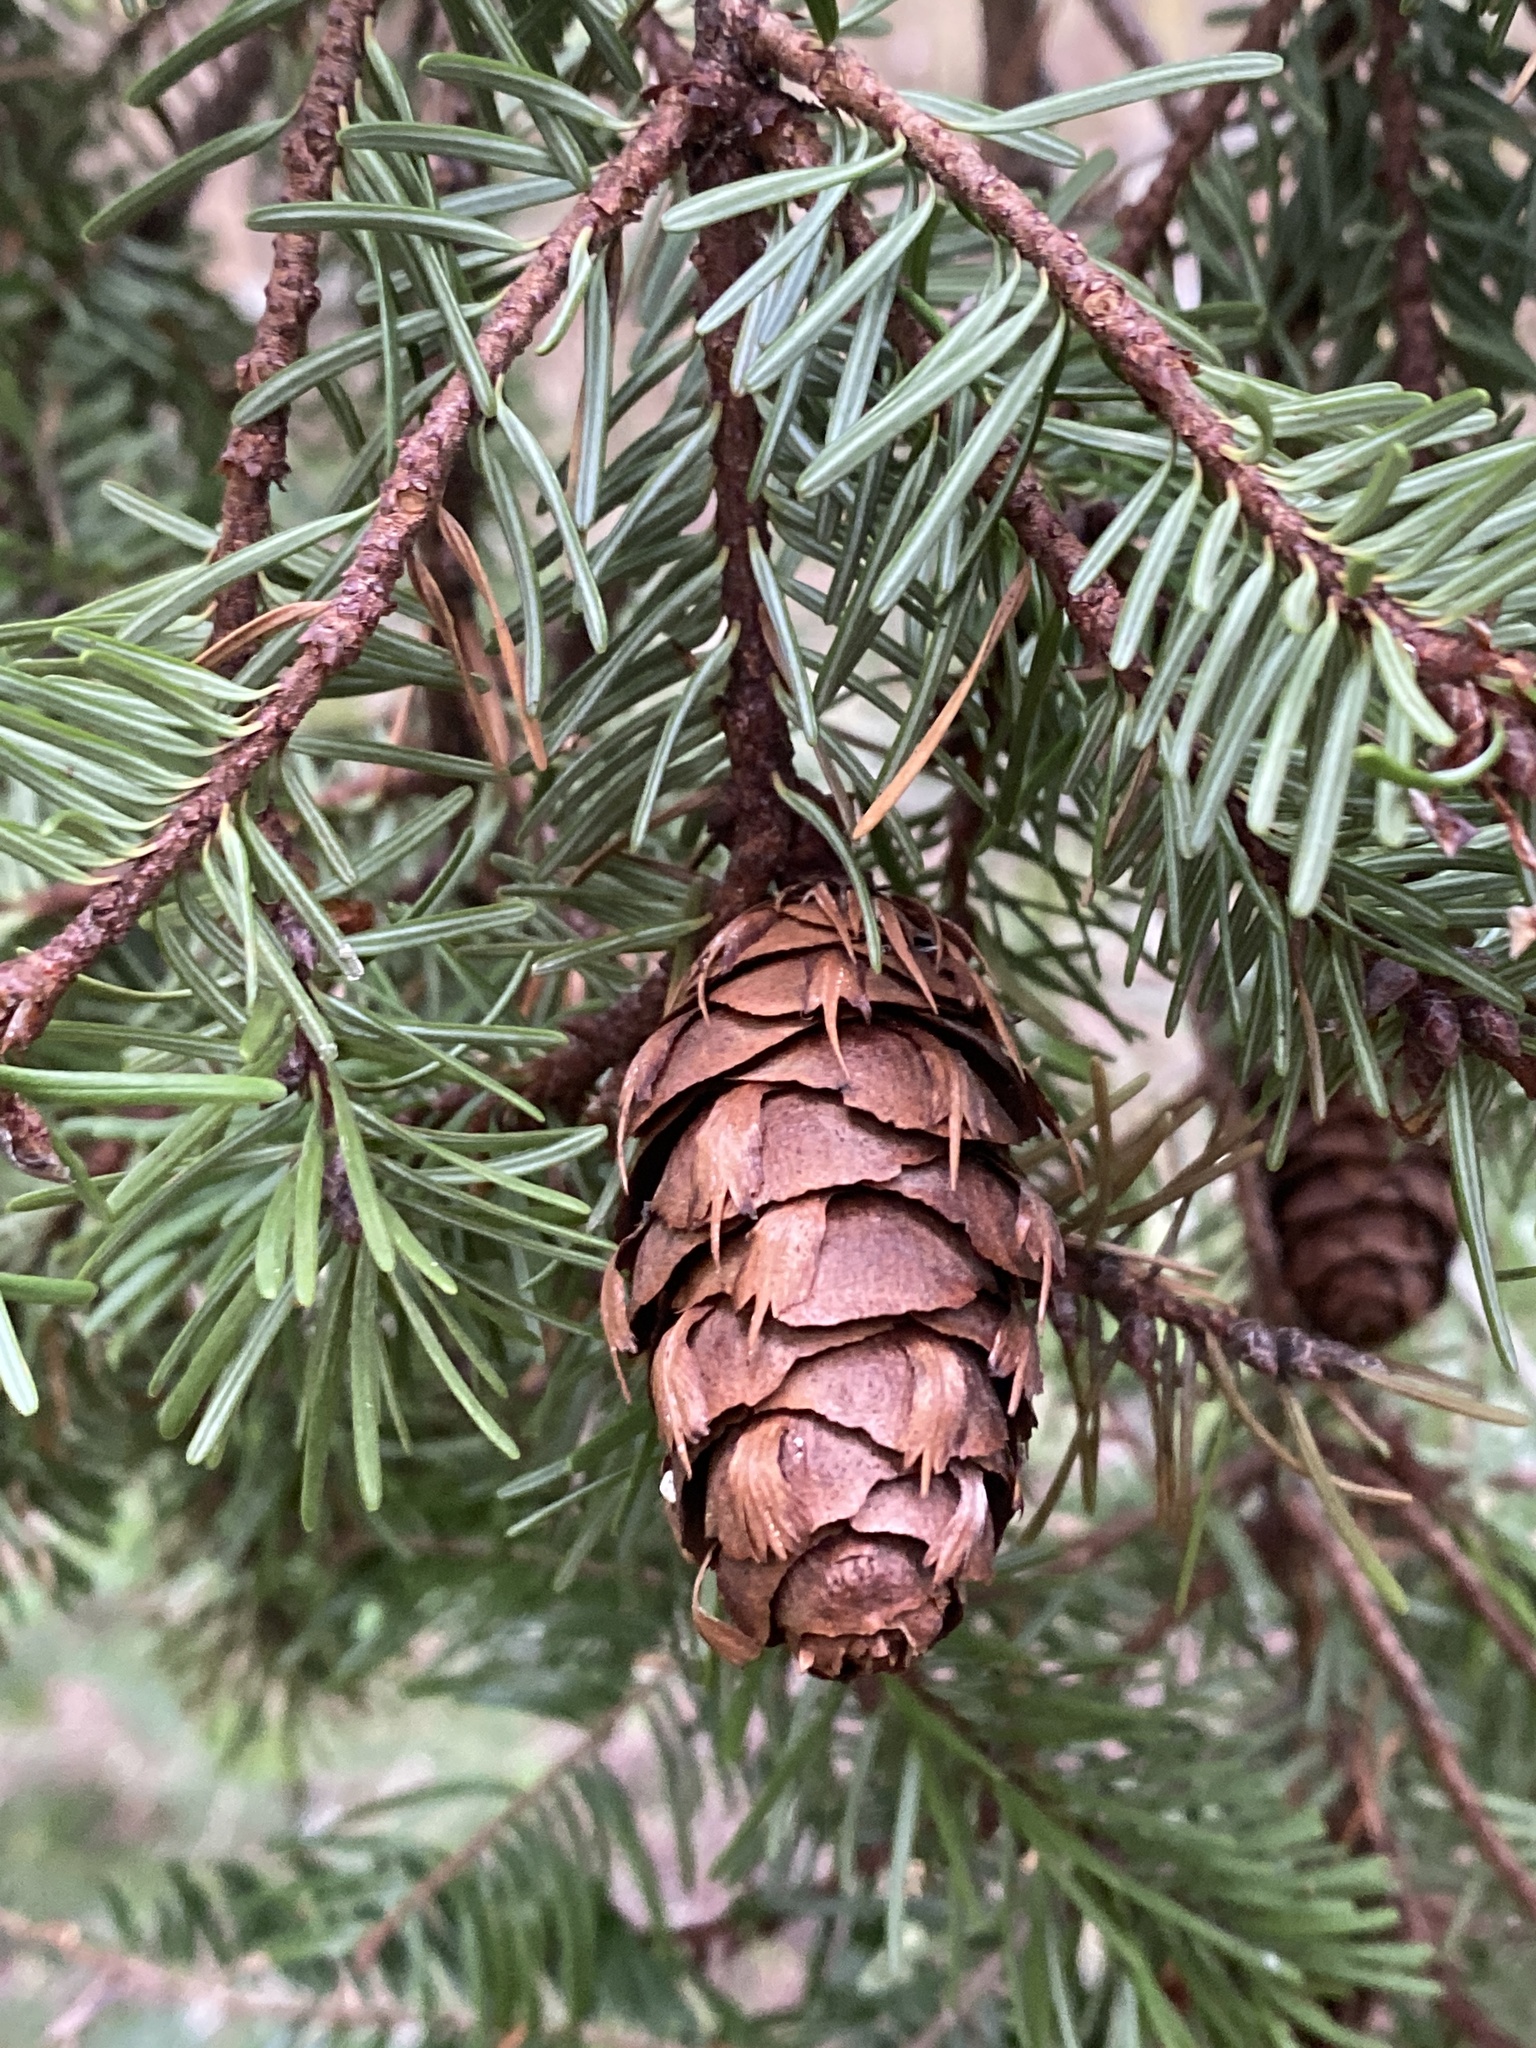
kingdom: Plantae
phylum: Tracheophyta
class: Pinopsida
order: Pinales
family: Pinaceae
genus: Pseudotsuga
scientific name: Pseudotsuga menziesii
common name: Douglas fir
